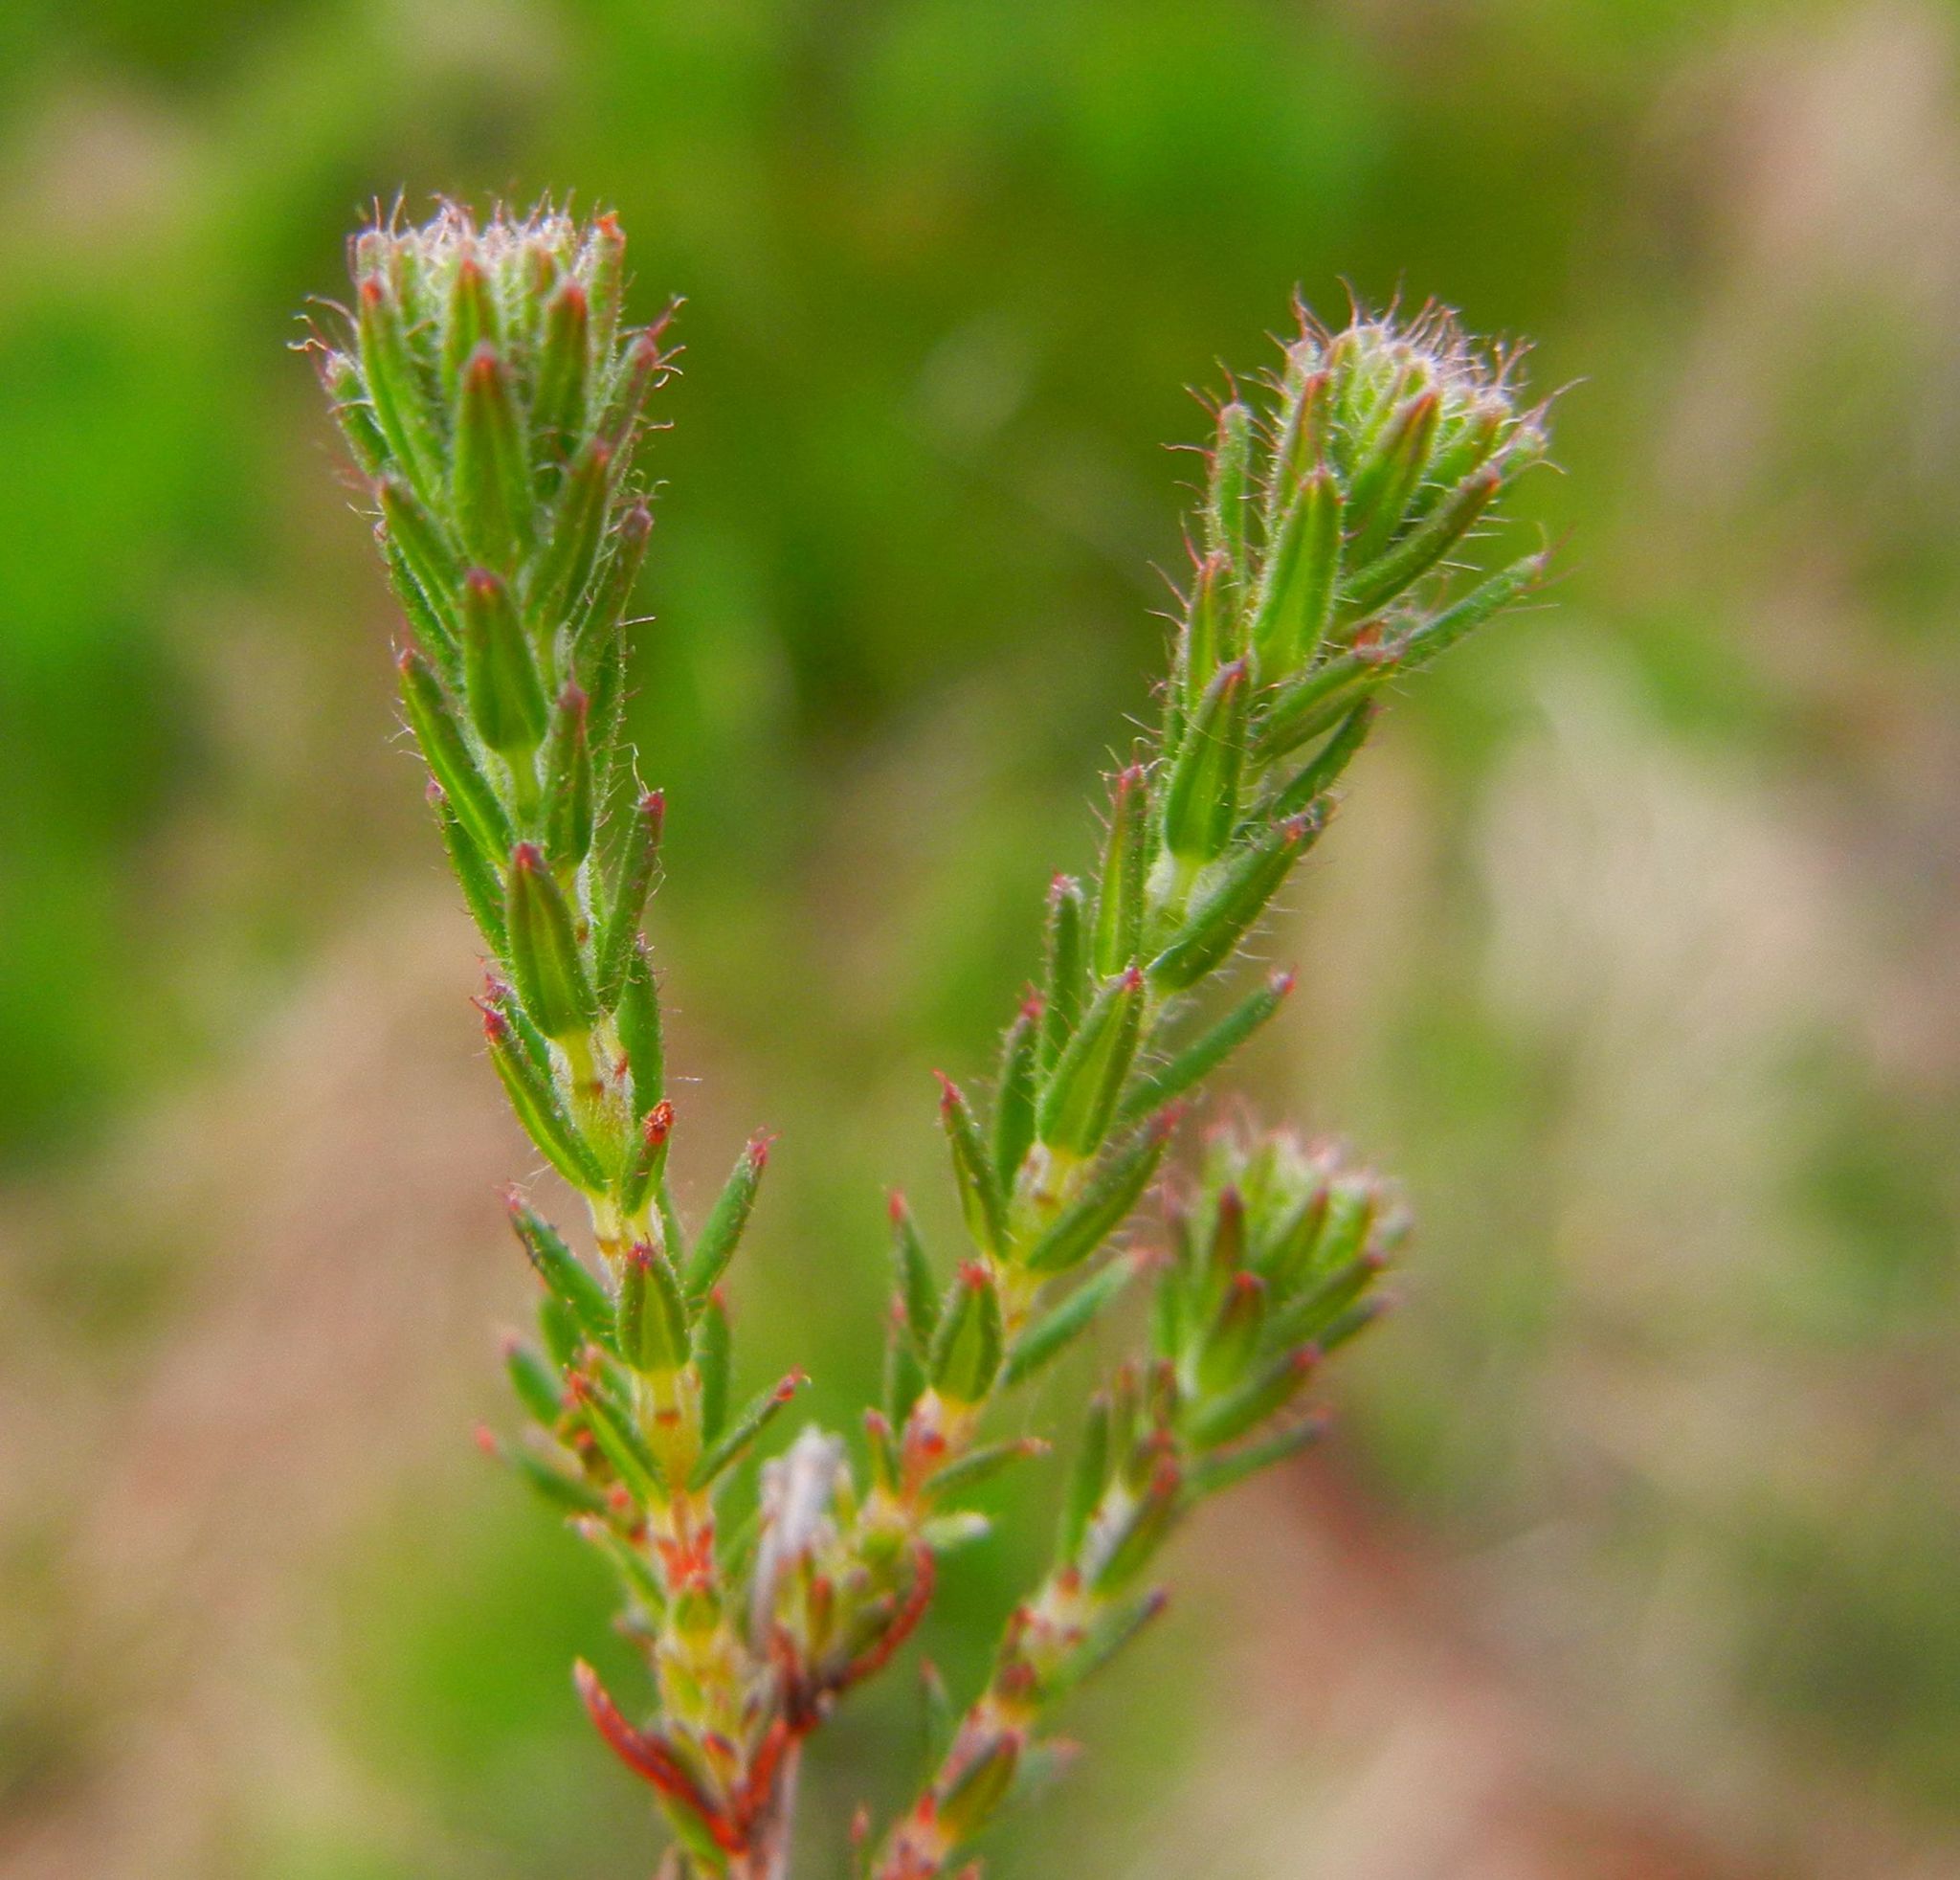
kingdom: Plantae
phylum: Tracheophyta
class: Magnoliopsida
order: Ericales
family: Ericaceae
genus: Erica
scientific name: Erica tetralix
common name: Cross-leaved heath
